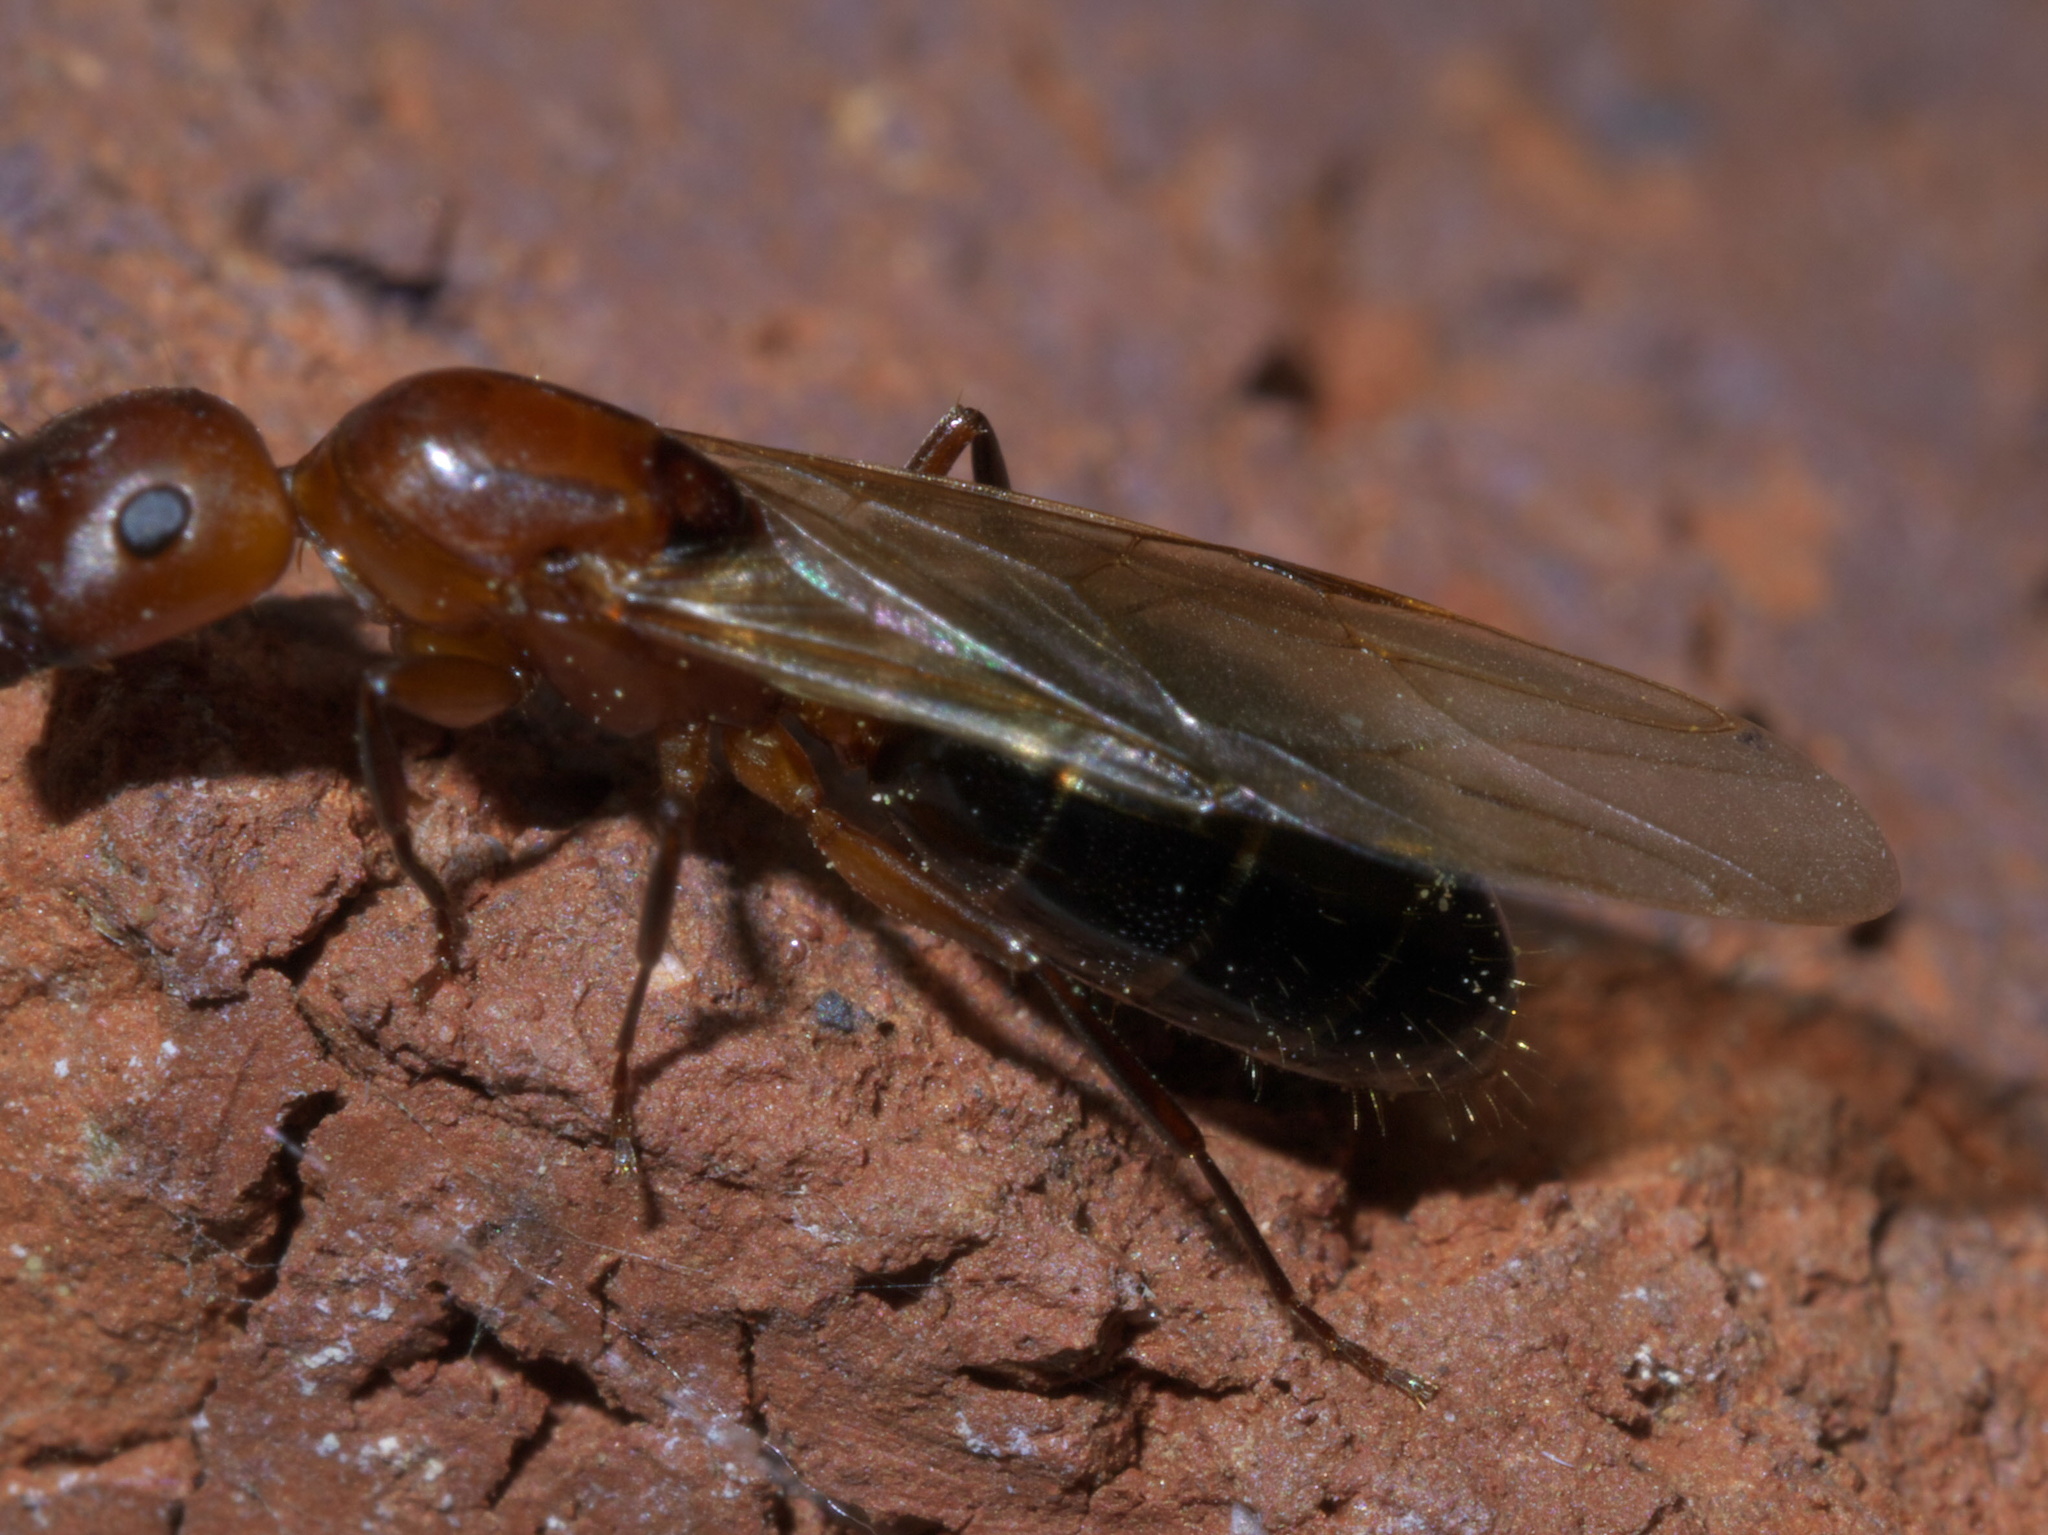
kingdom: Animalia
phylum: Arthropoda
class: Insecta
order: Hymenoptera
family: Formicidae
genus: Camponotus
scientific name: Camponotus decipiens
